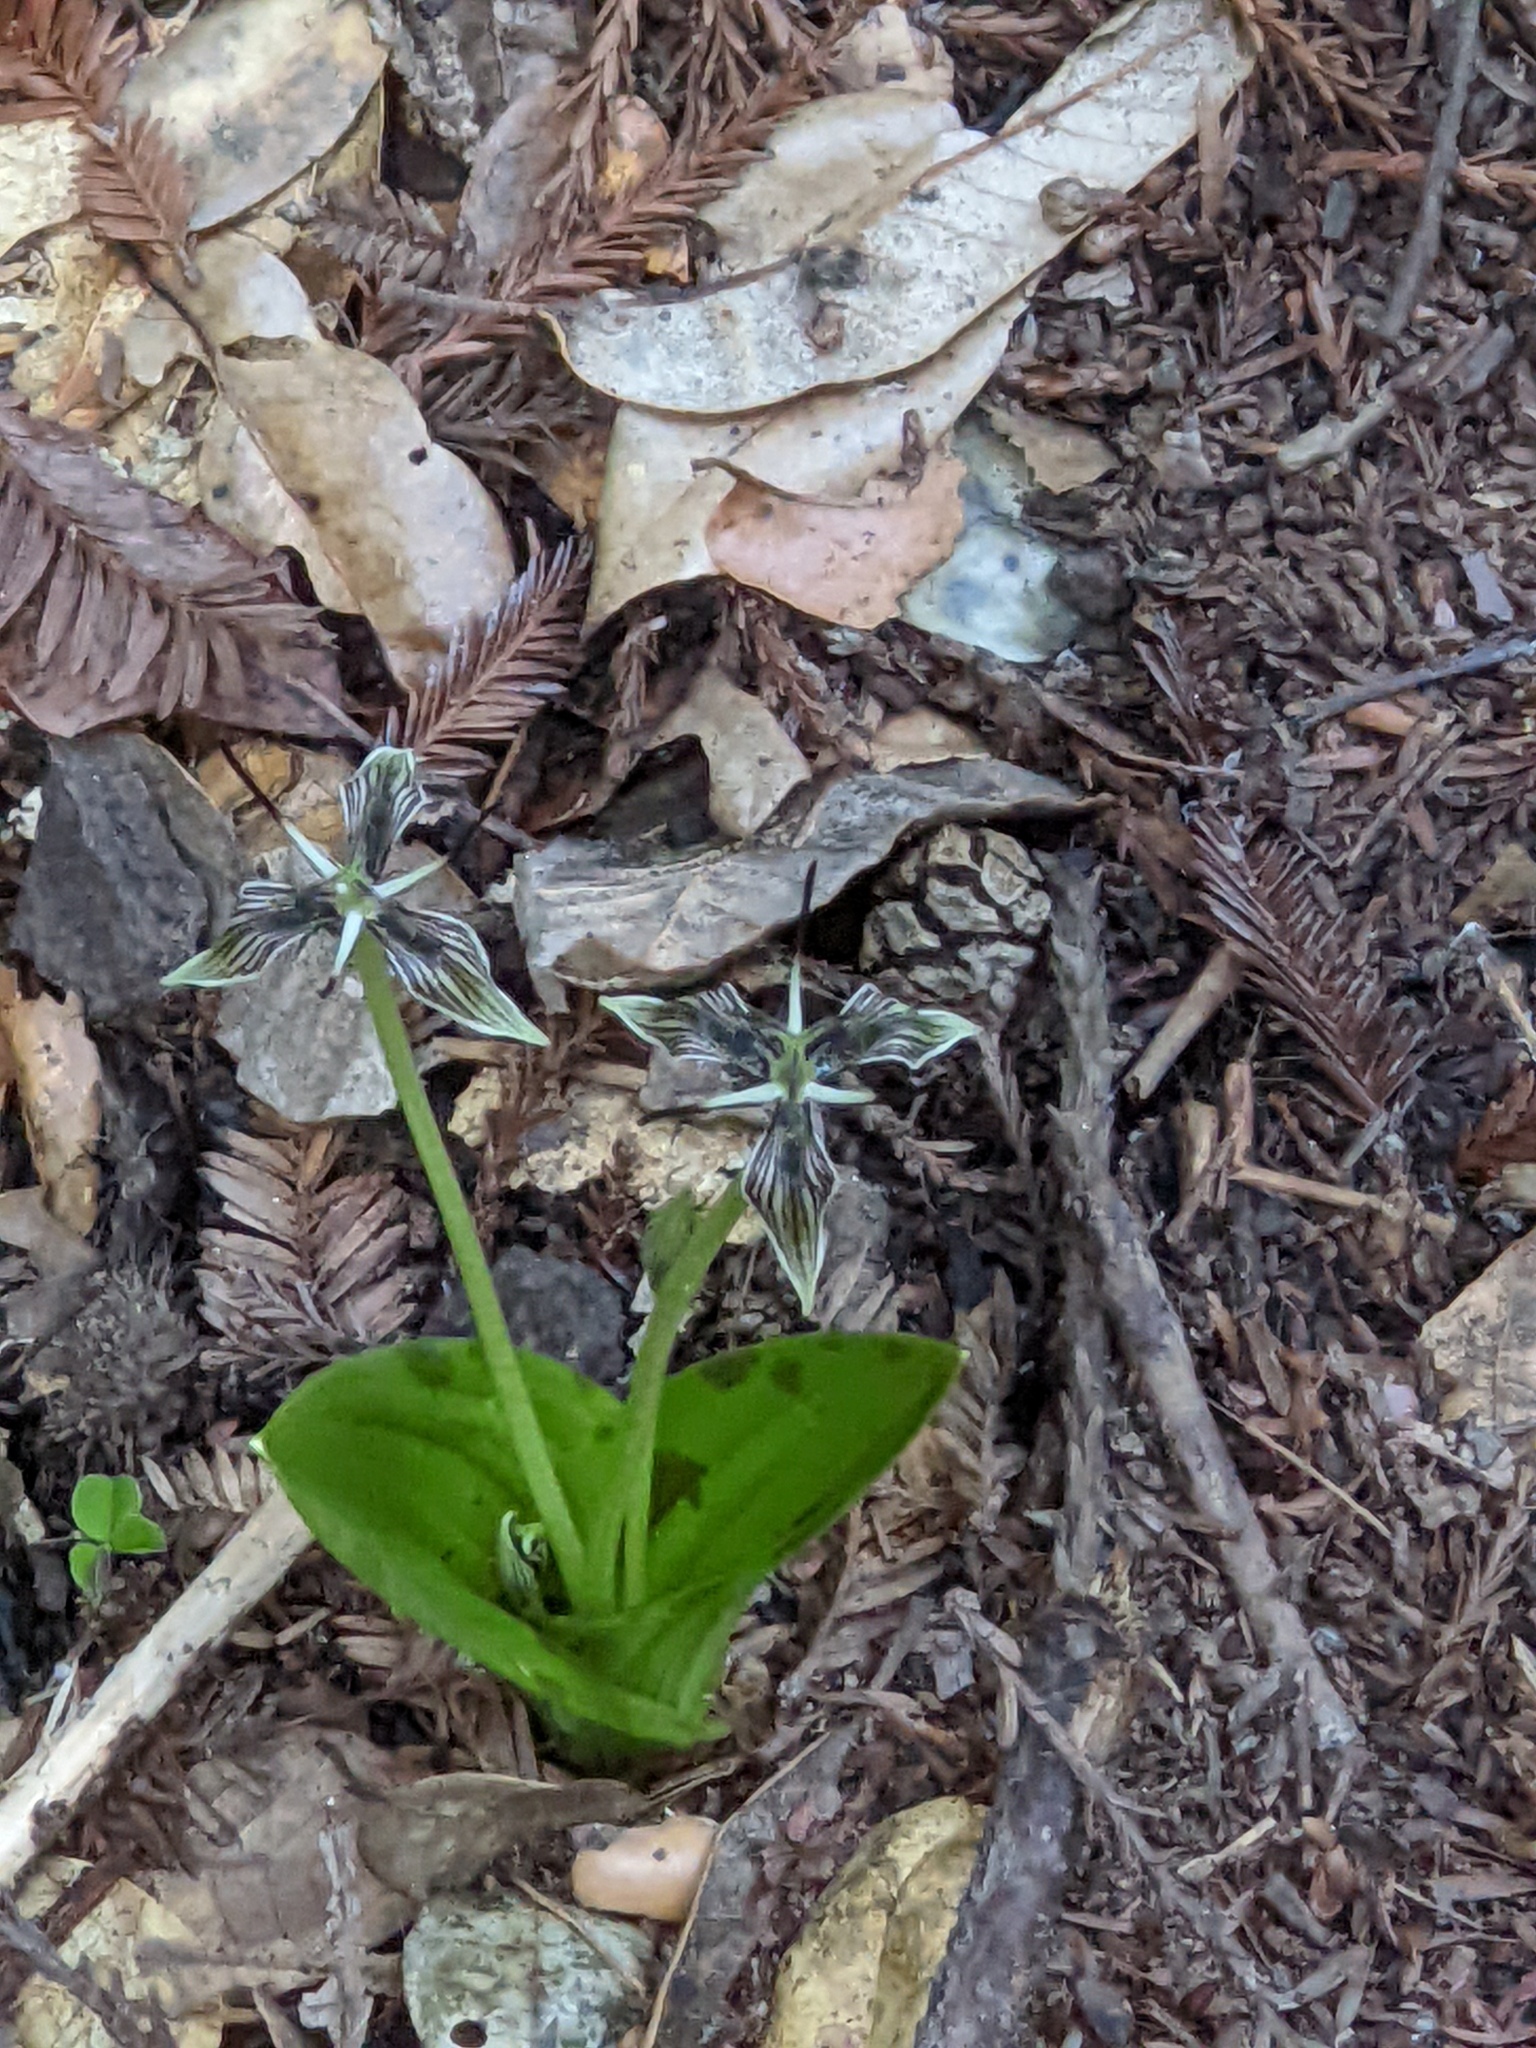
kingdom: Plantae
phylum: Tracheophyta
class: Liliopsida
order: Liliales
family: Liliaceae
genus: Scoliopus
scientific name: Scoliopus bigelovii
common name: Foetid adder's-tongue
